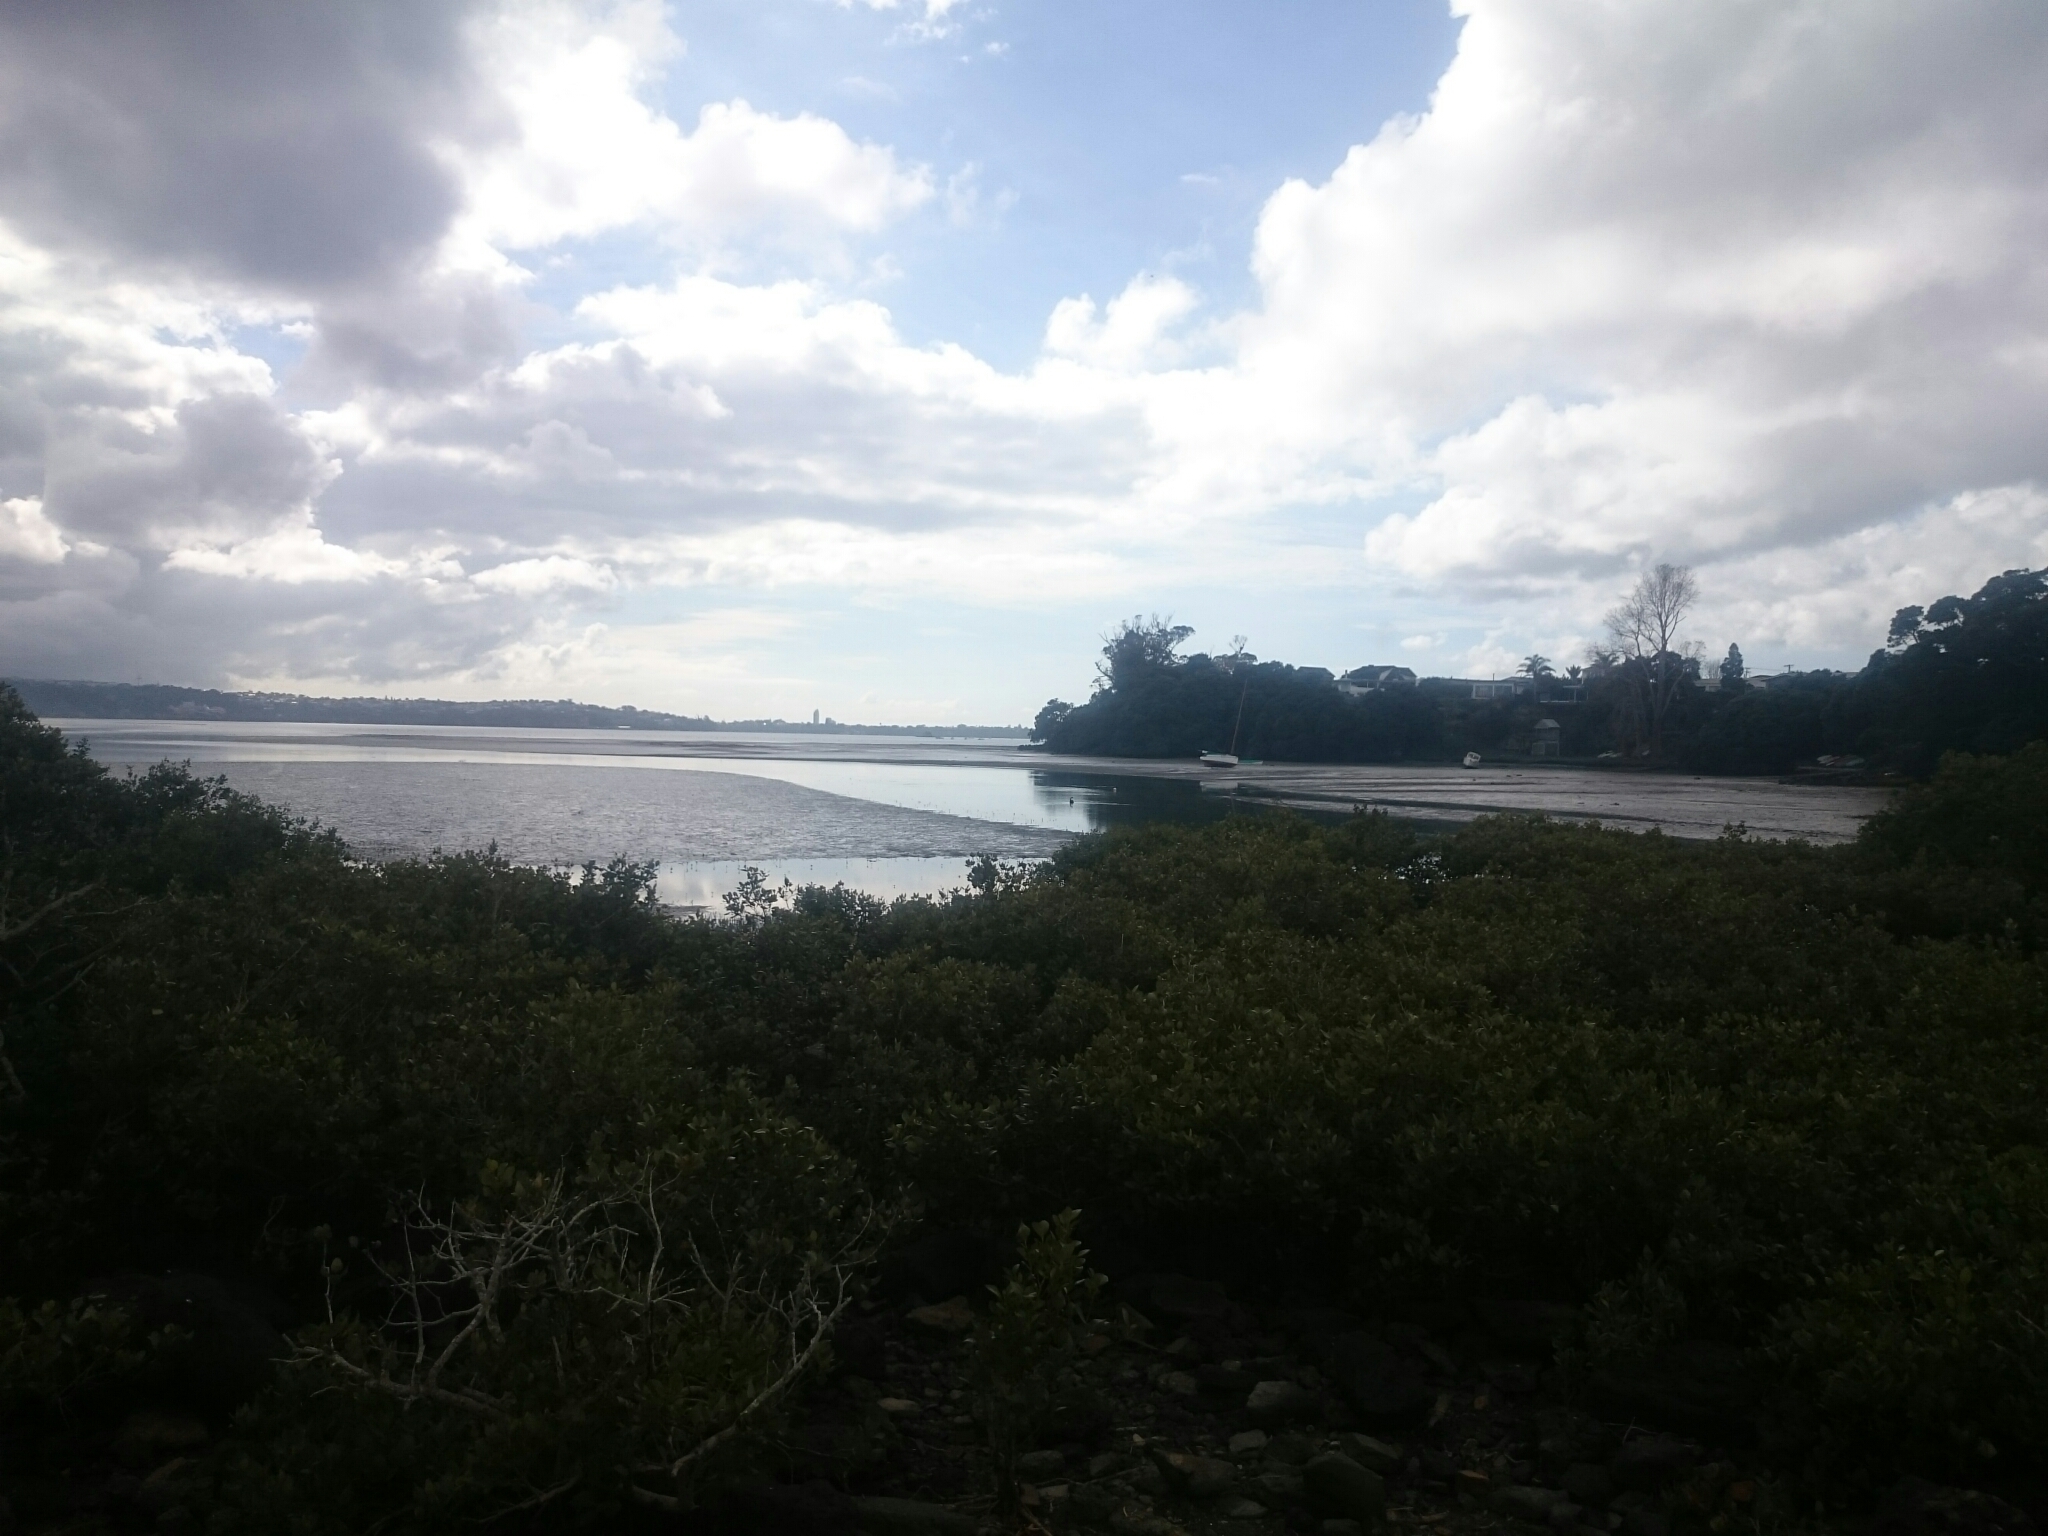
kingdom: Animalia
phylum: Chordata
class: Aves
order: Anseriformes
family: Anatidae
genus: Cygnus
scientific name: Cygnus atratus
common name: Black swan
